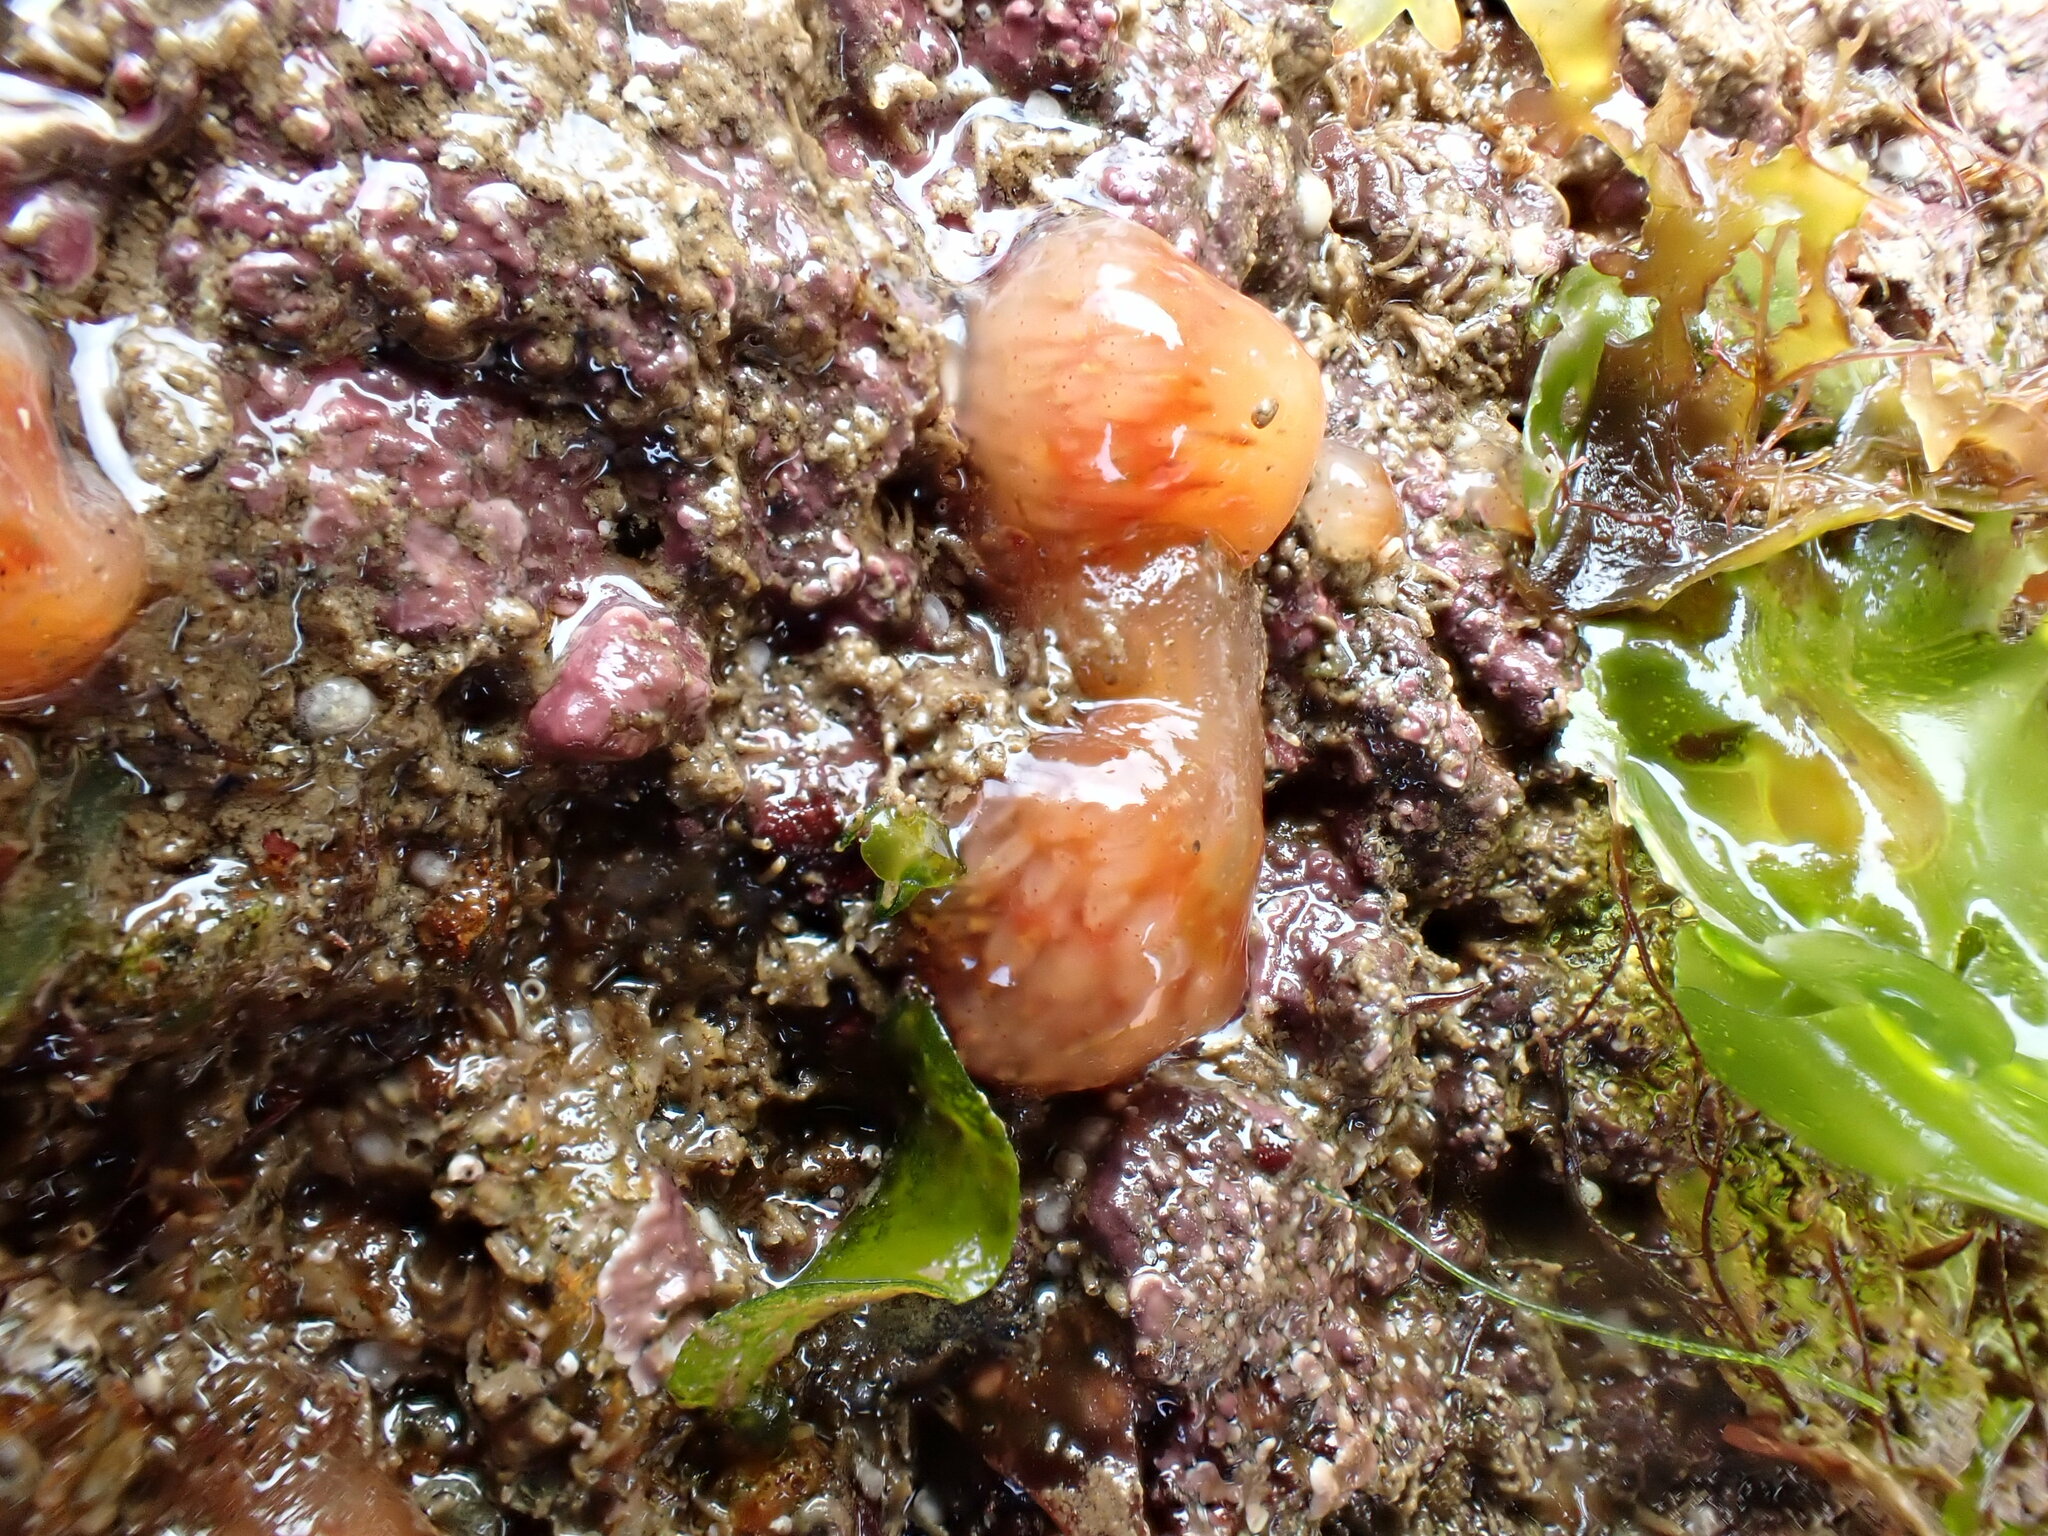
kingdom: Animalia
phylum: Chordata
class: Ascidiacea
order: Aplousobranchia
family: Polyclinidae
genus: Morchellium
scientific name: Morchellium argus
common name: Colonial sesquirt
